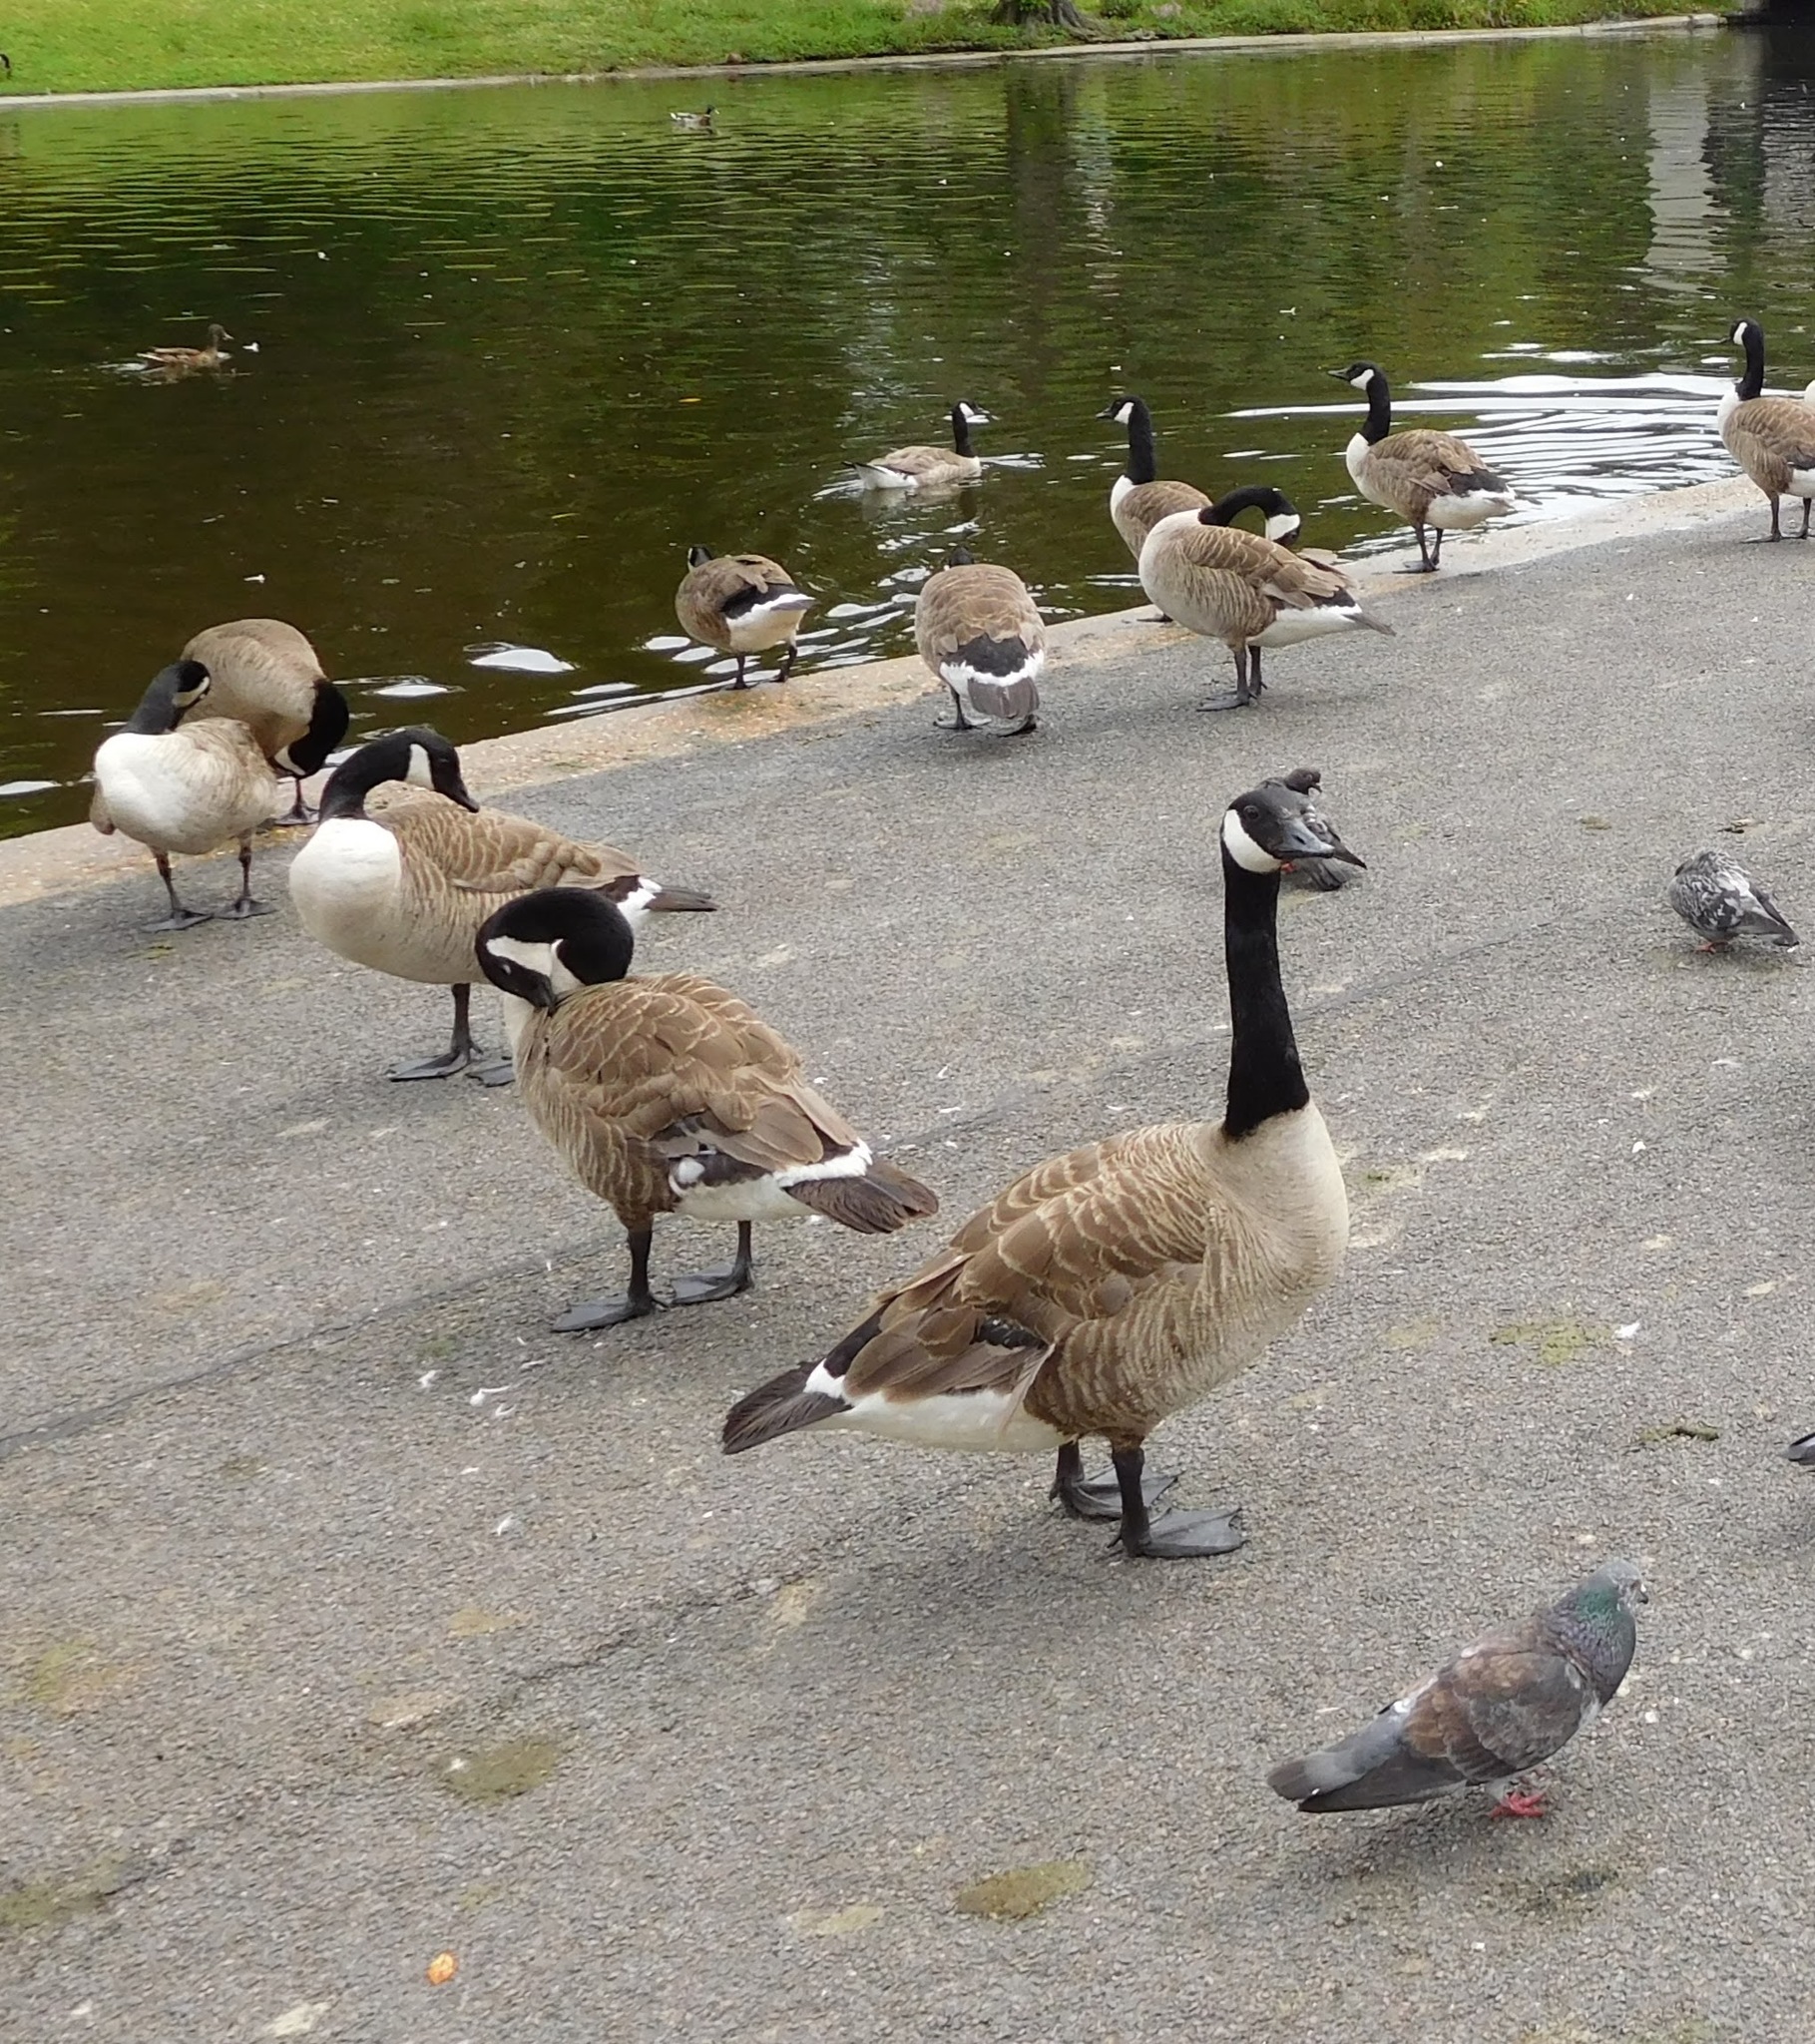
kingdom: Animalia
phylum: Chordata
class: Aves
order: Anseriformes
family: Anatidae
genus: Branta
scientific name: Branta canadensis
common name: Canada goose
